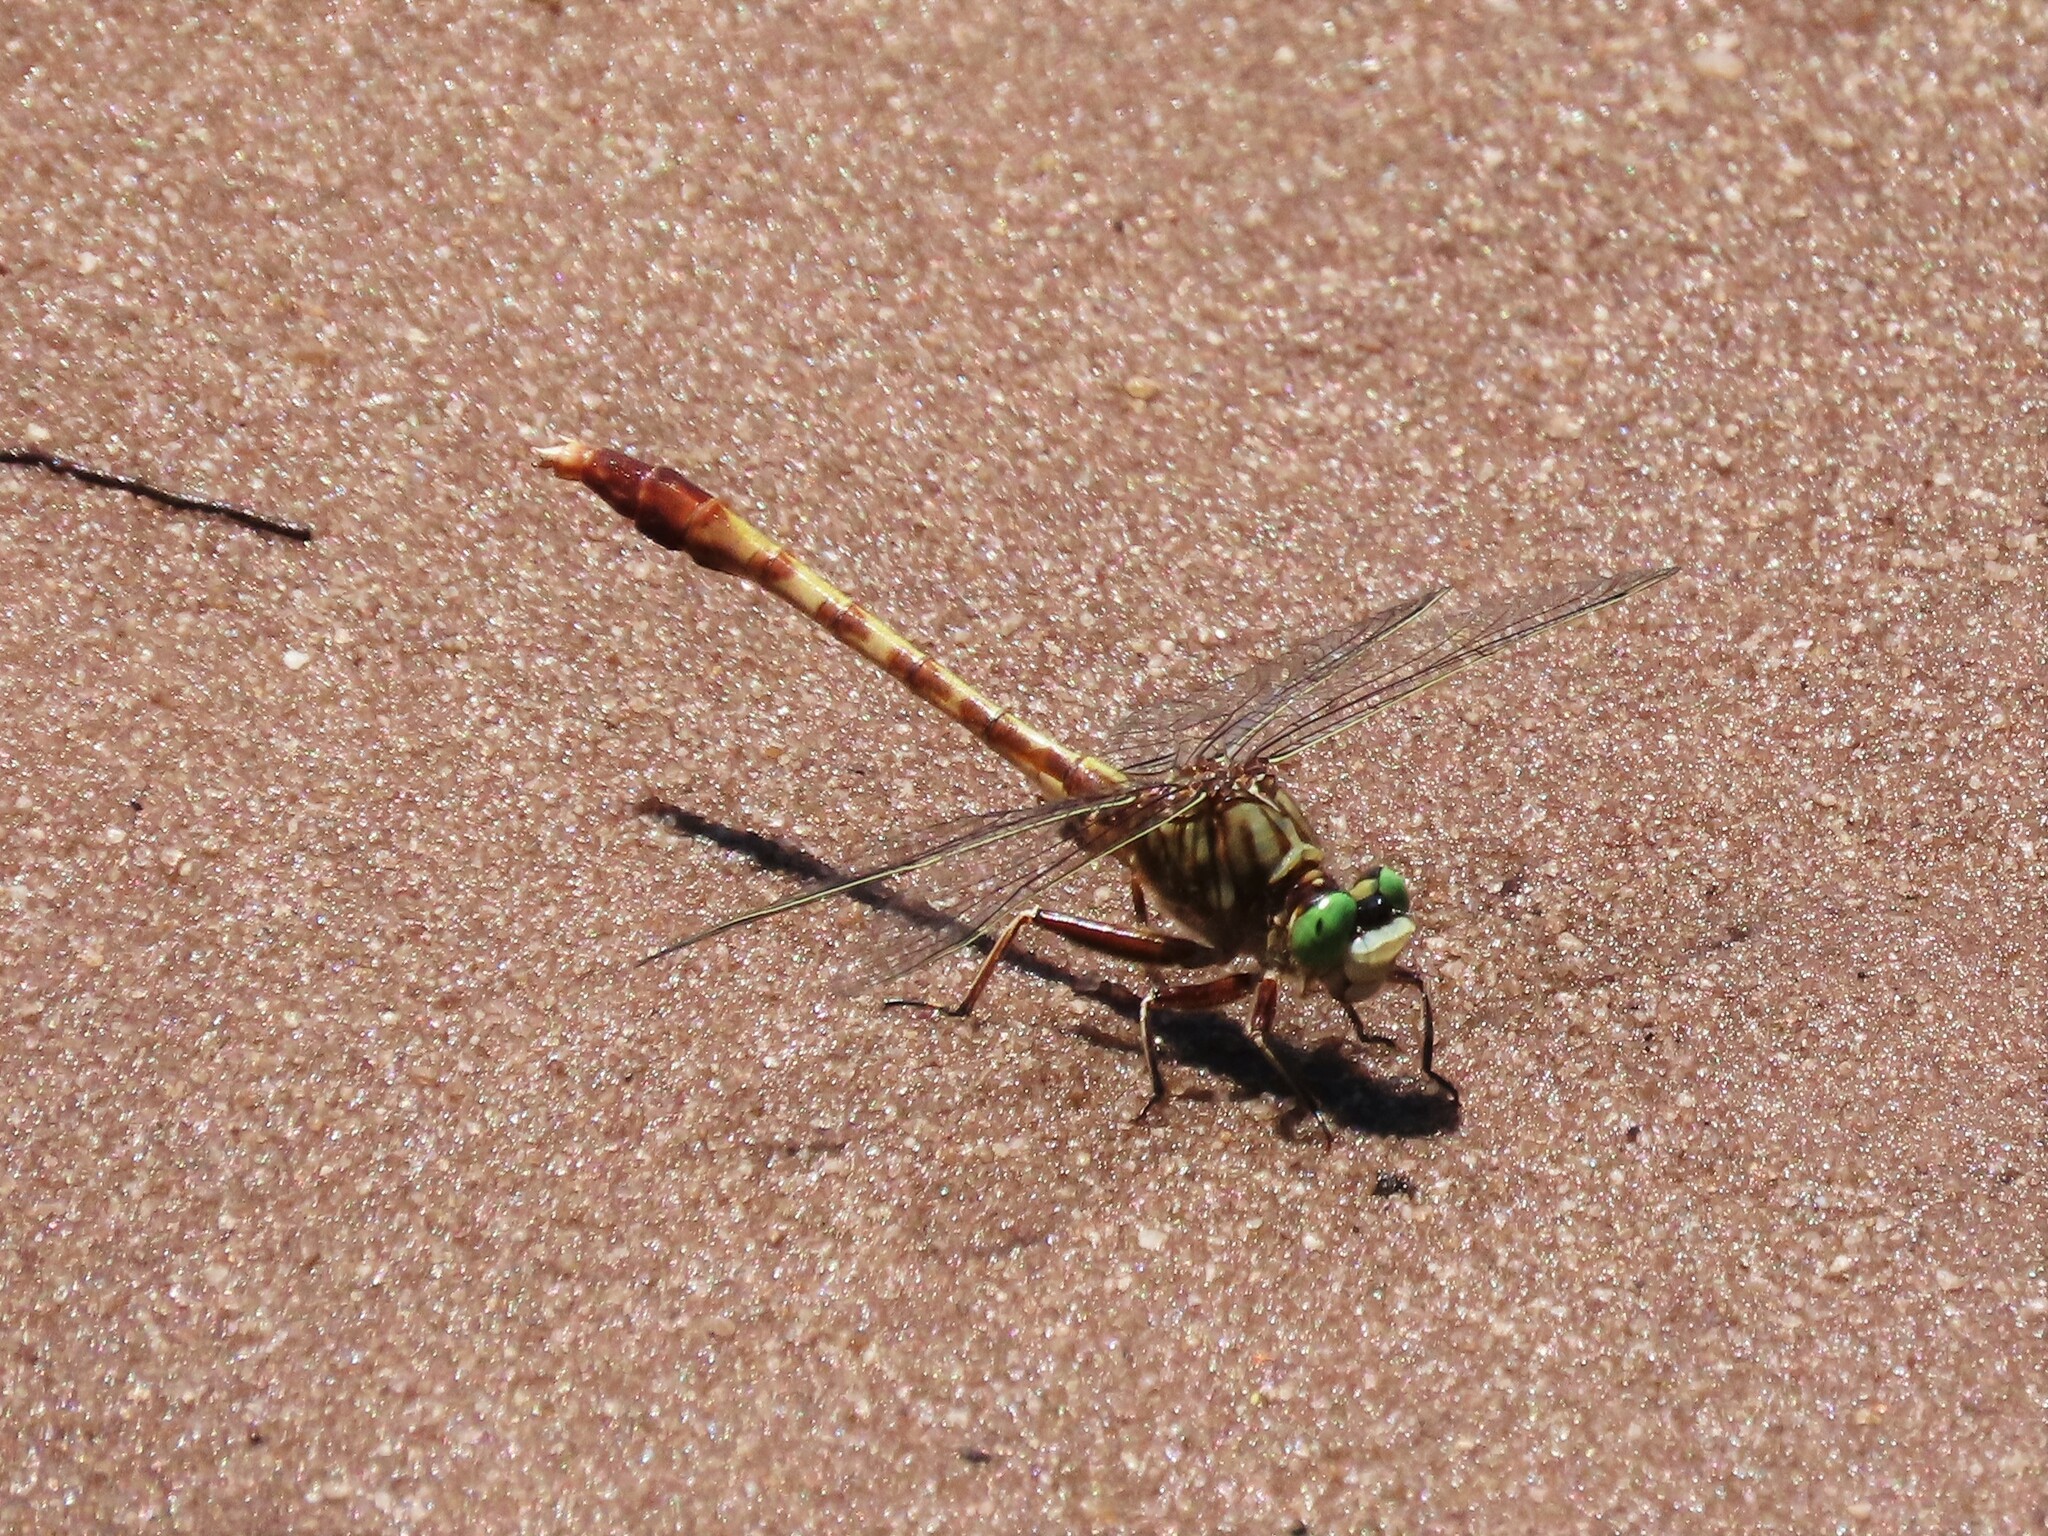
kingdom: Animalia
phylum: Arthropoda
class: Insecta
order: Odonata
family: Gomphidae
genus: Arigomphus
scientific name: Arigomphus pallidus
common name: Gray-green clubtail
